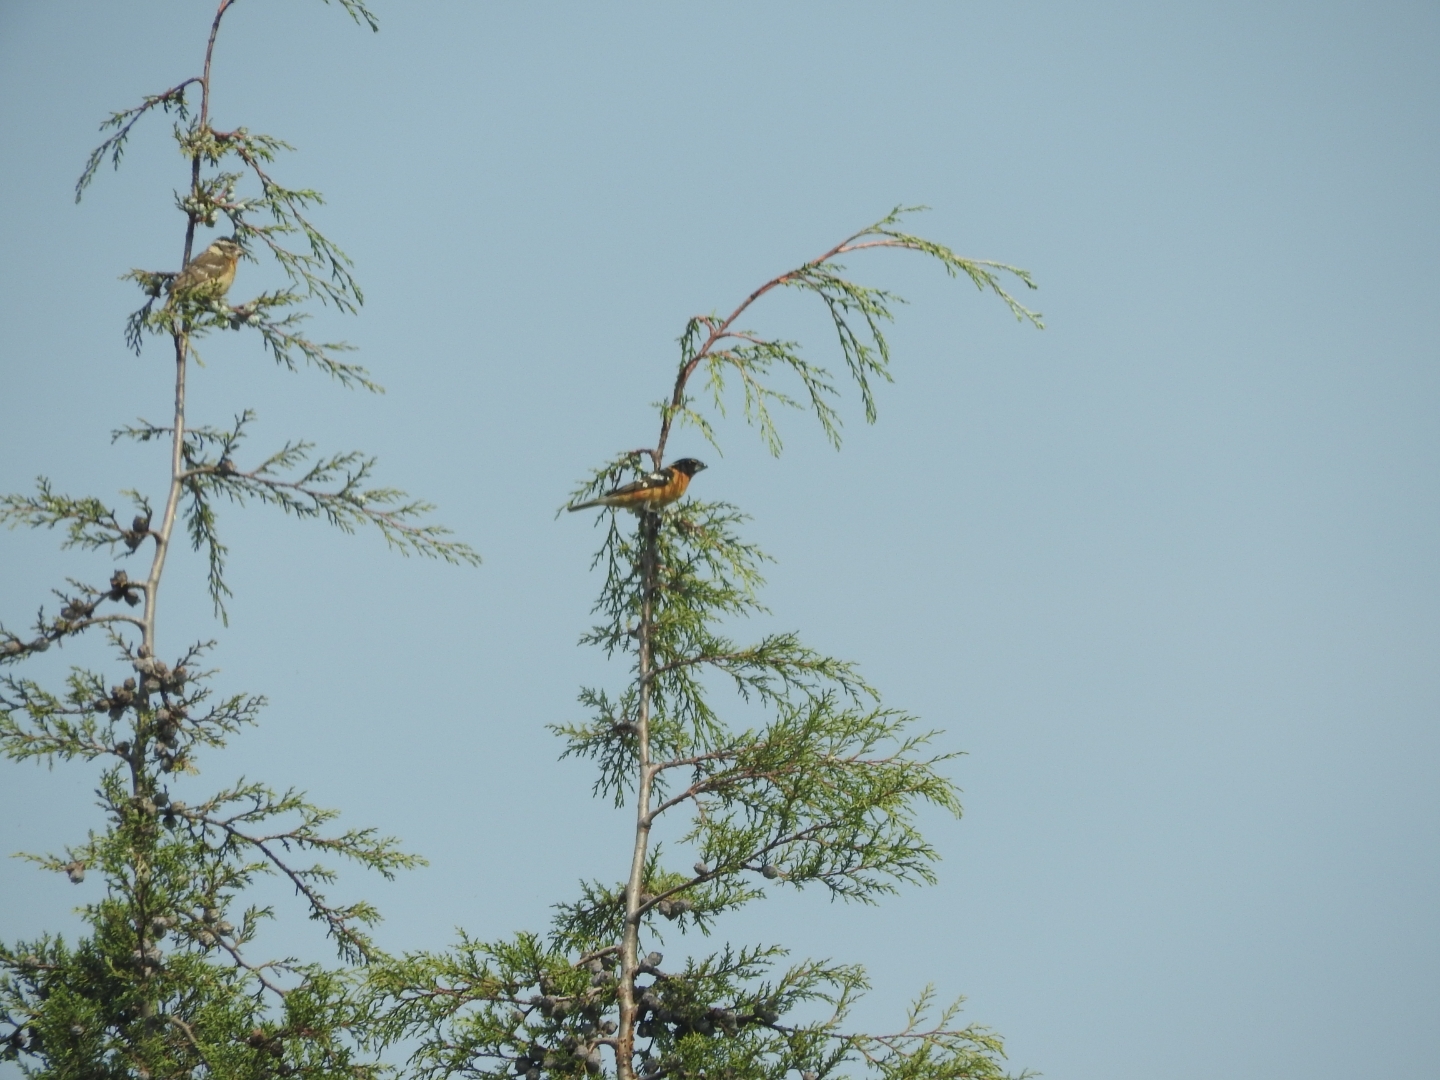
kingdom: Animalia
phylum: Chordata
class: Aves
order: Passeriformes
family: Cardinalidae
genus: Pheucticus
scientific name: Pheucticus melanocephalus
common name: Black-headed grosbeak
